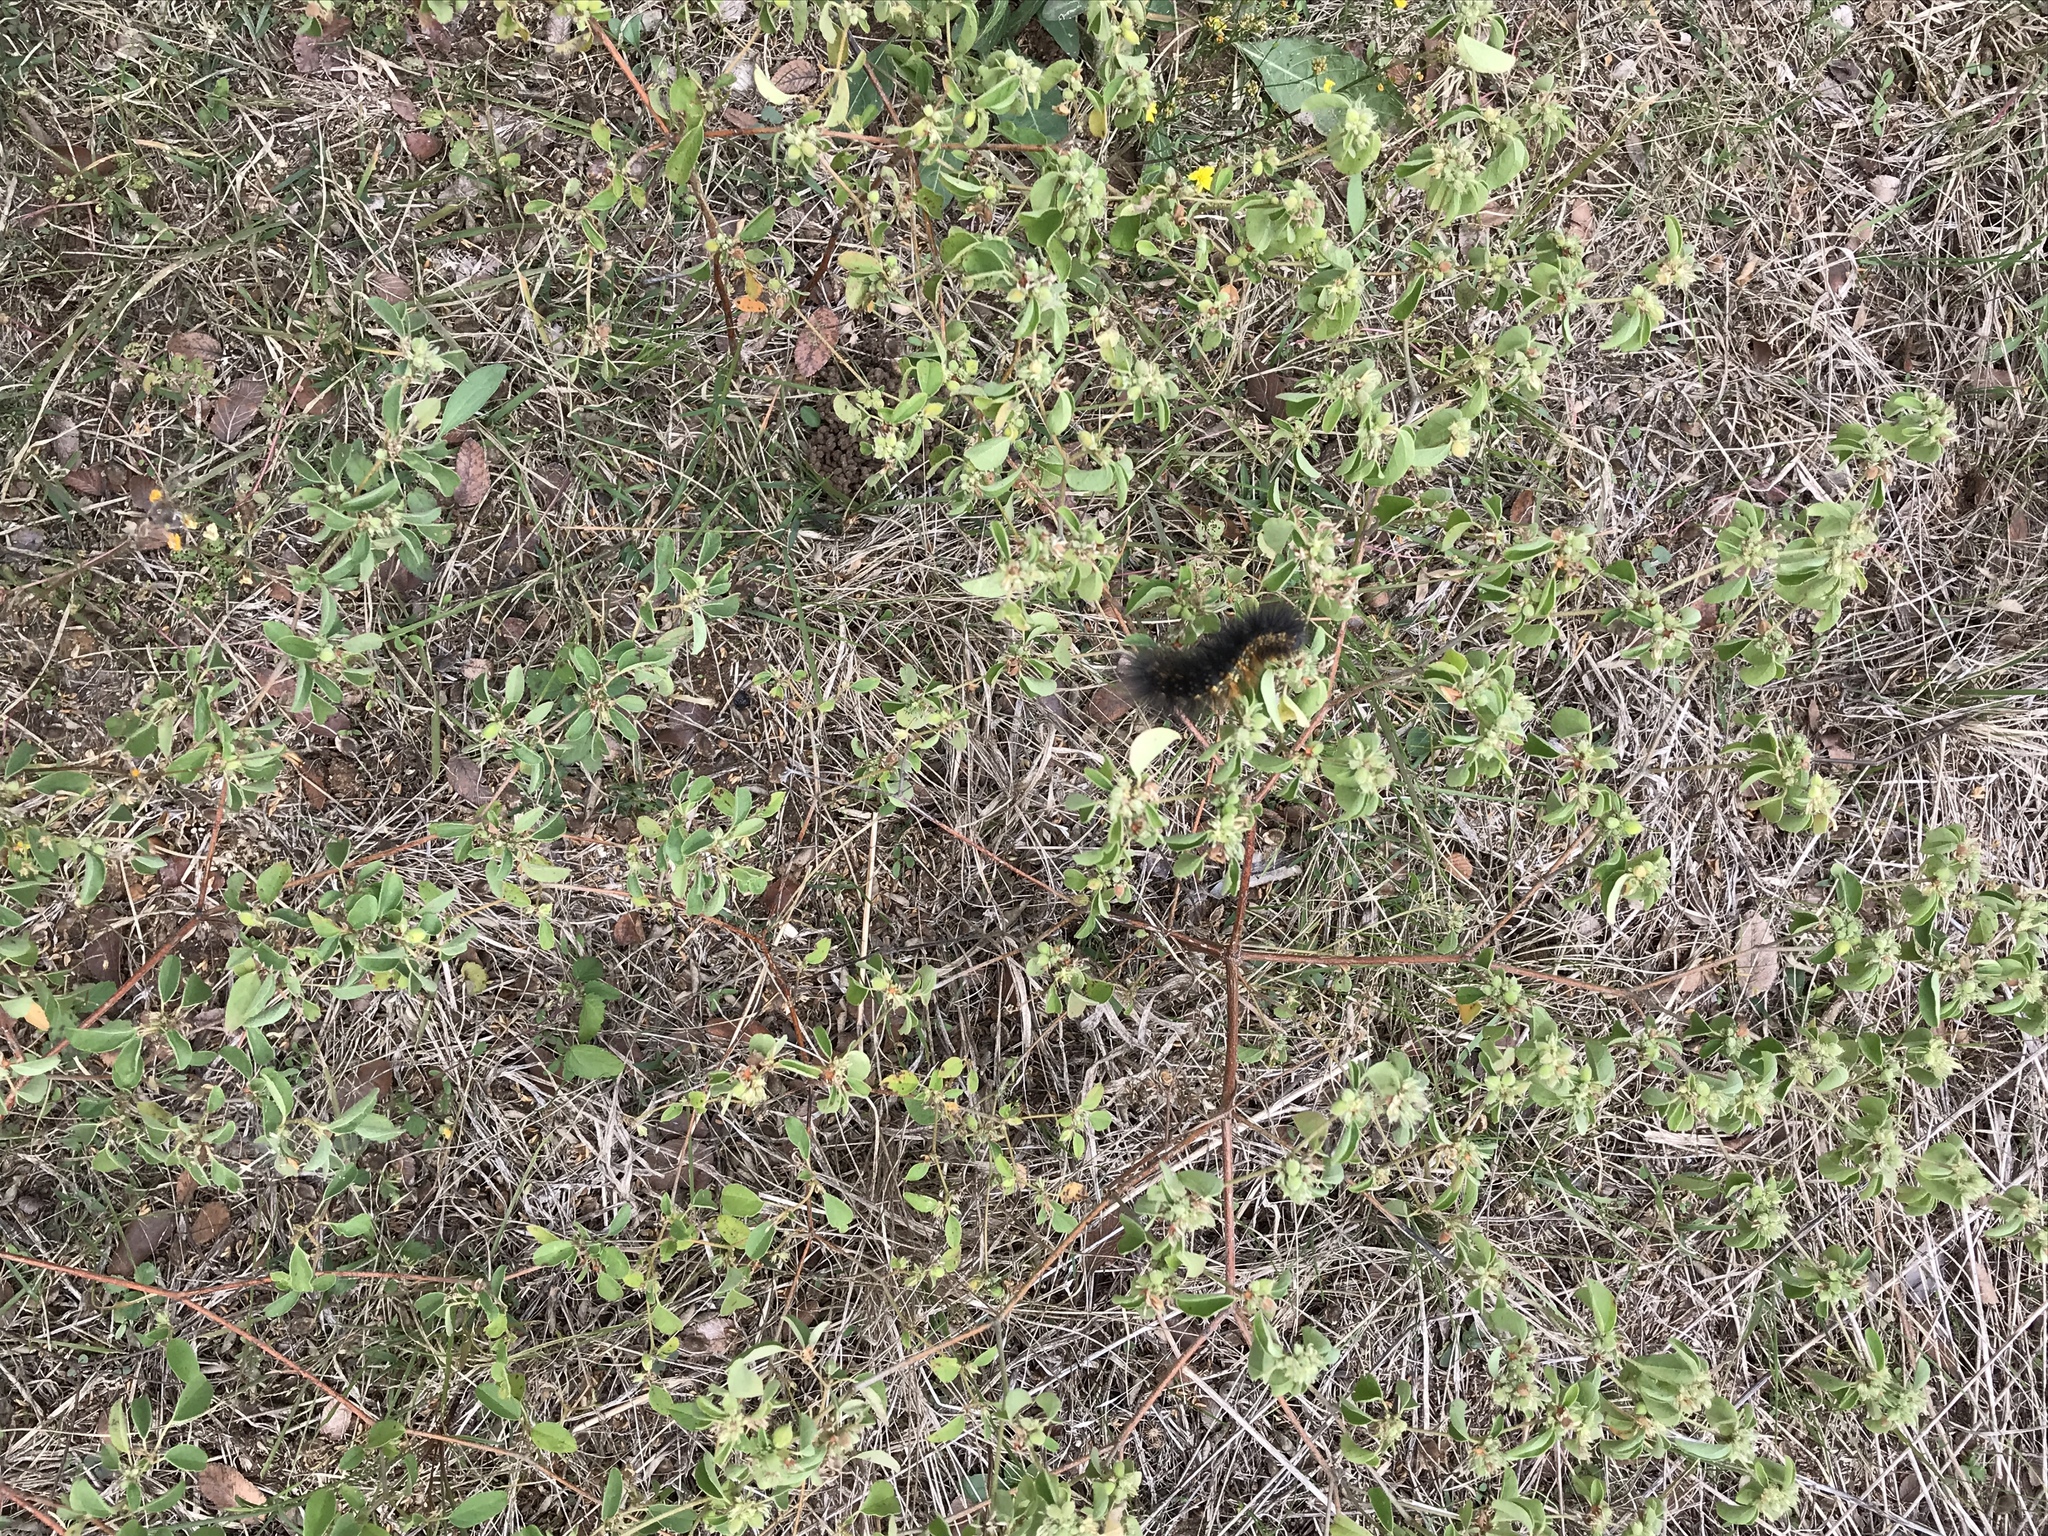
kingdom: Animalia
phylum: Arthropoda
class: Insecta
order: Lepidoptera
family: Erebidae
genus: Estigmene
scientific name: Estigmene acrea
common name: Salt marsh moth
